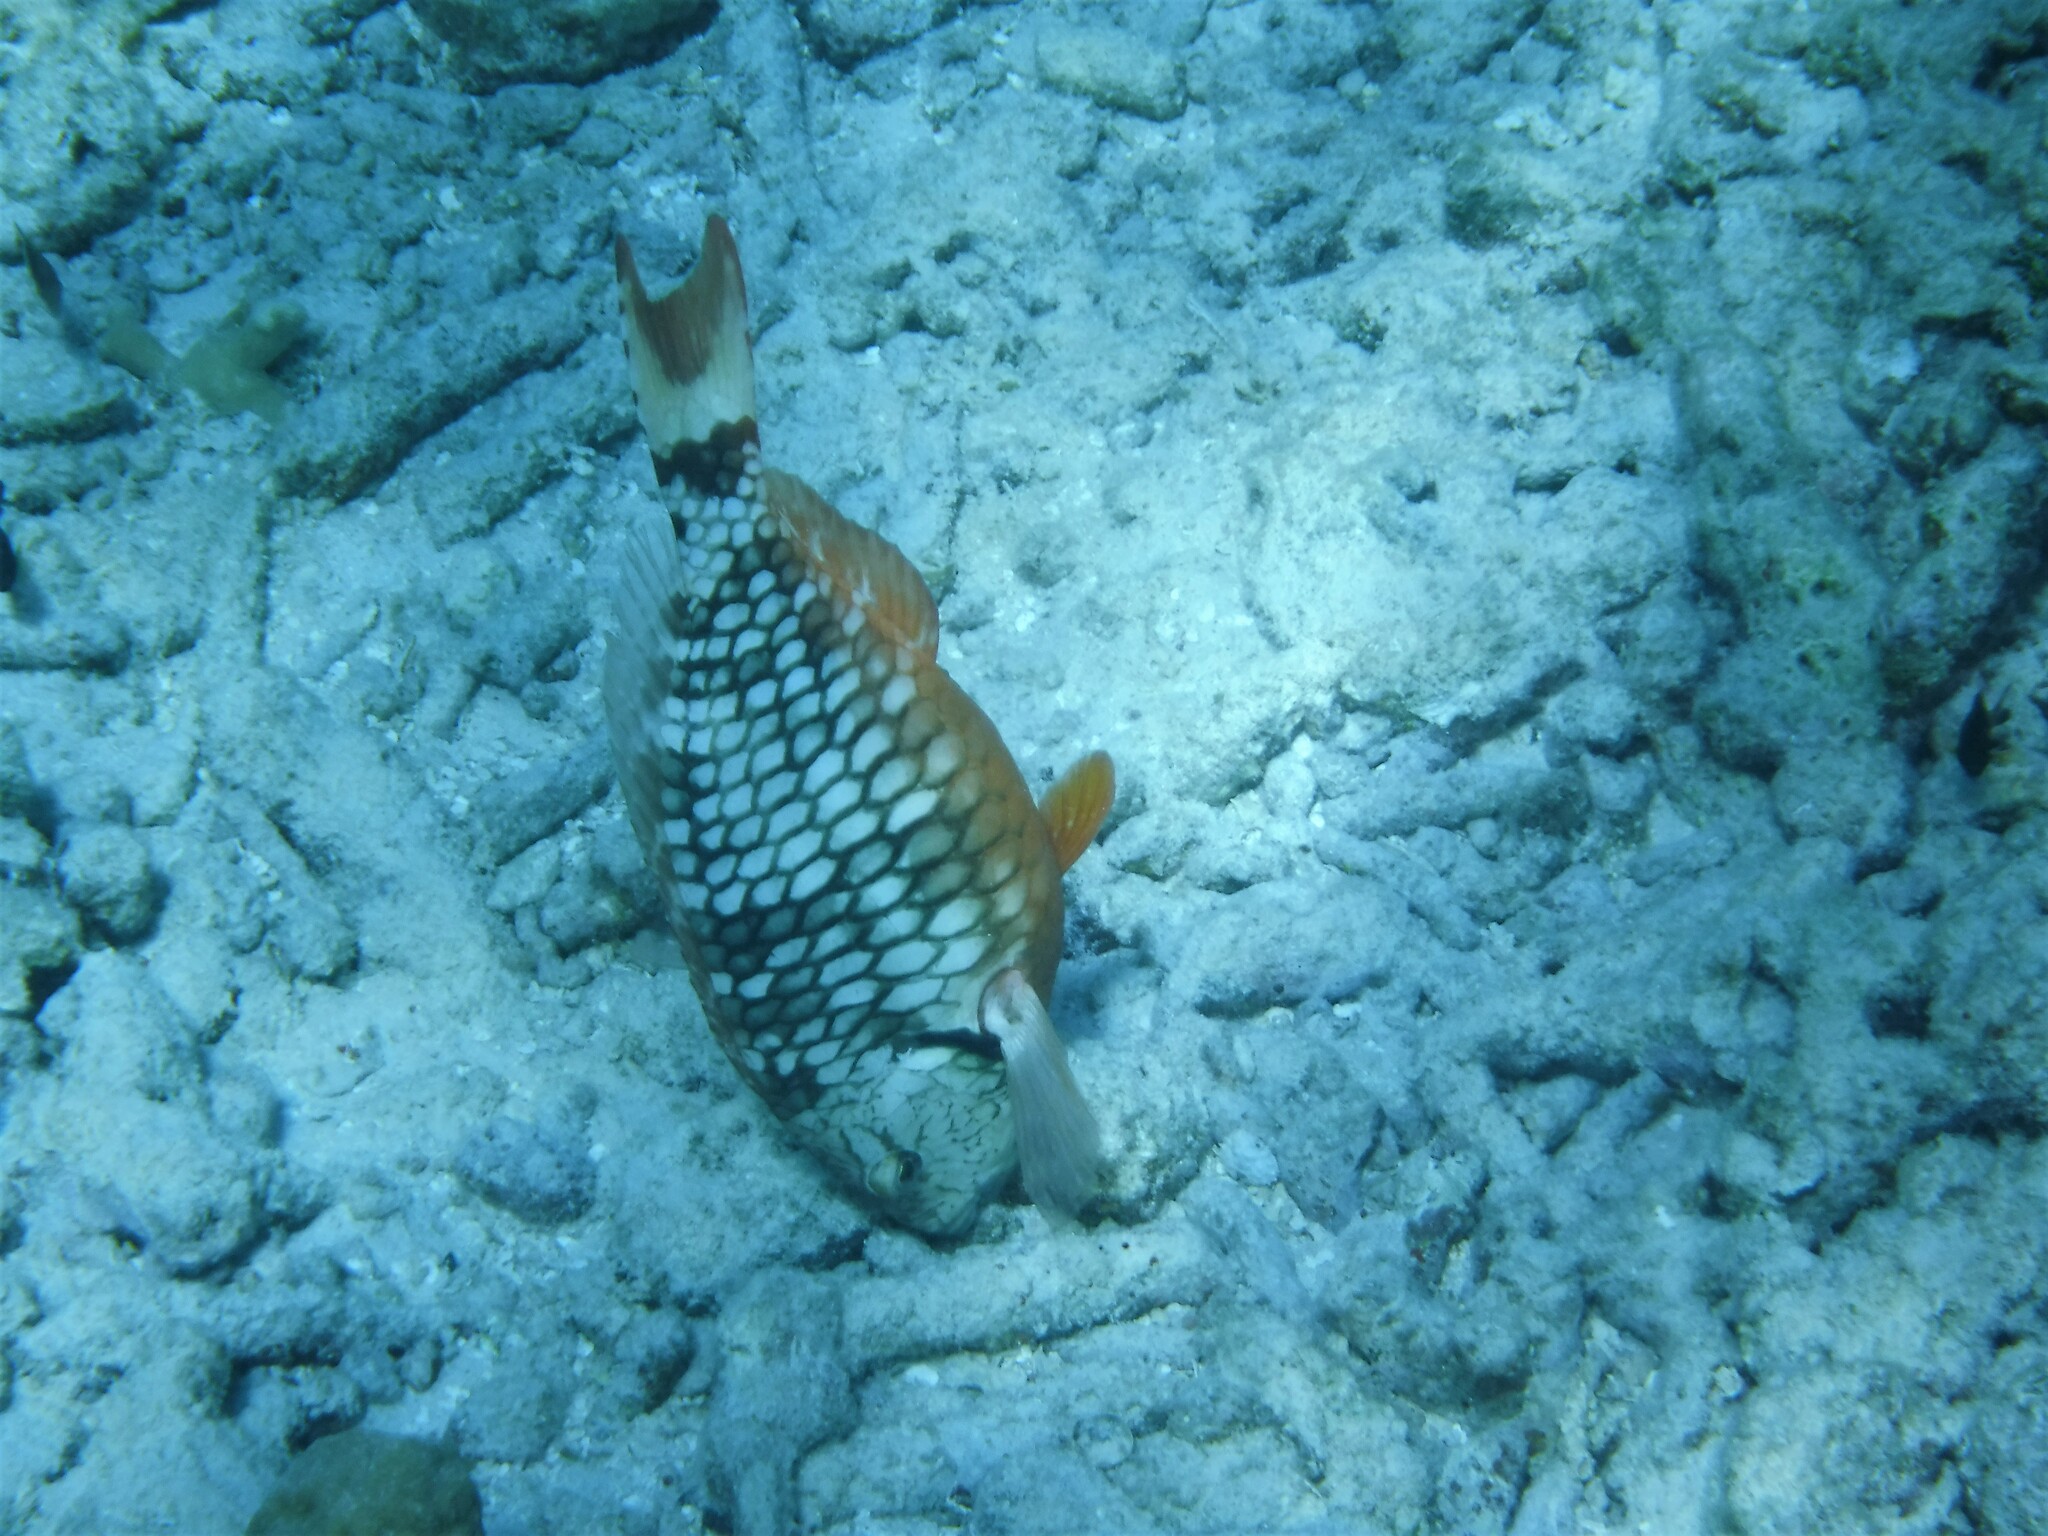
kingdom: Animalia
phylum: Chordata
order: Perciformes
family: Scaridae
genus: Sparisoma
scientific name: Sparisoma viride
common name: Stoplight parrotfish
